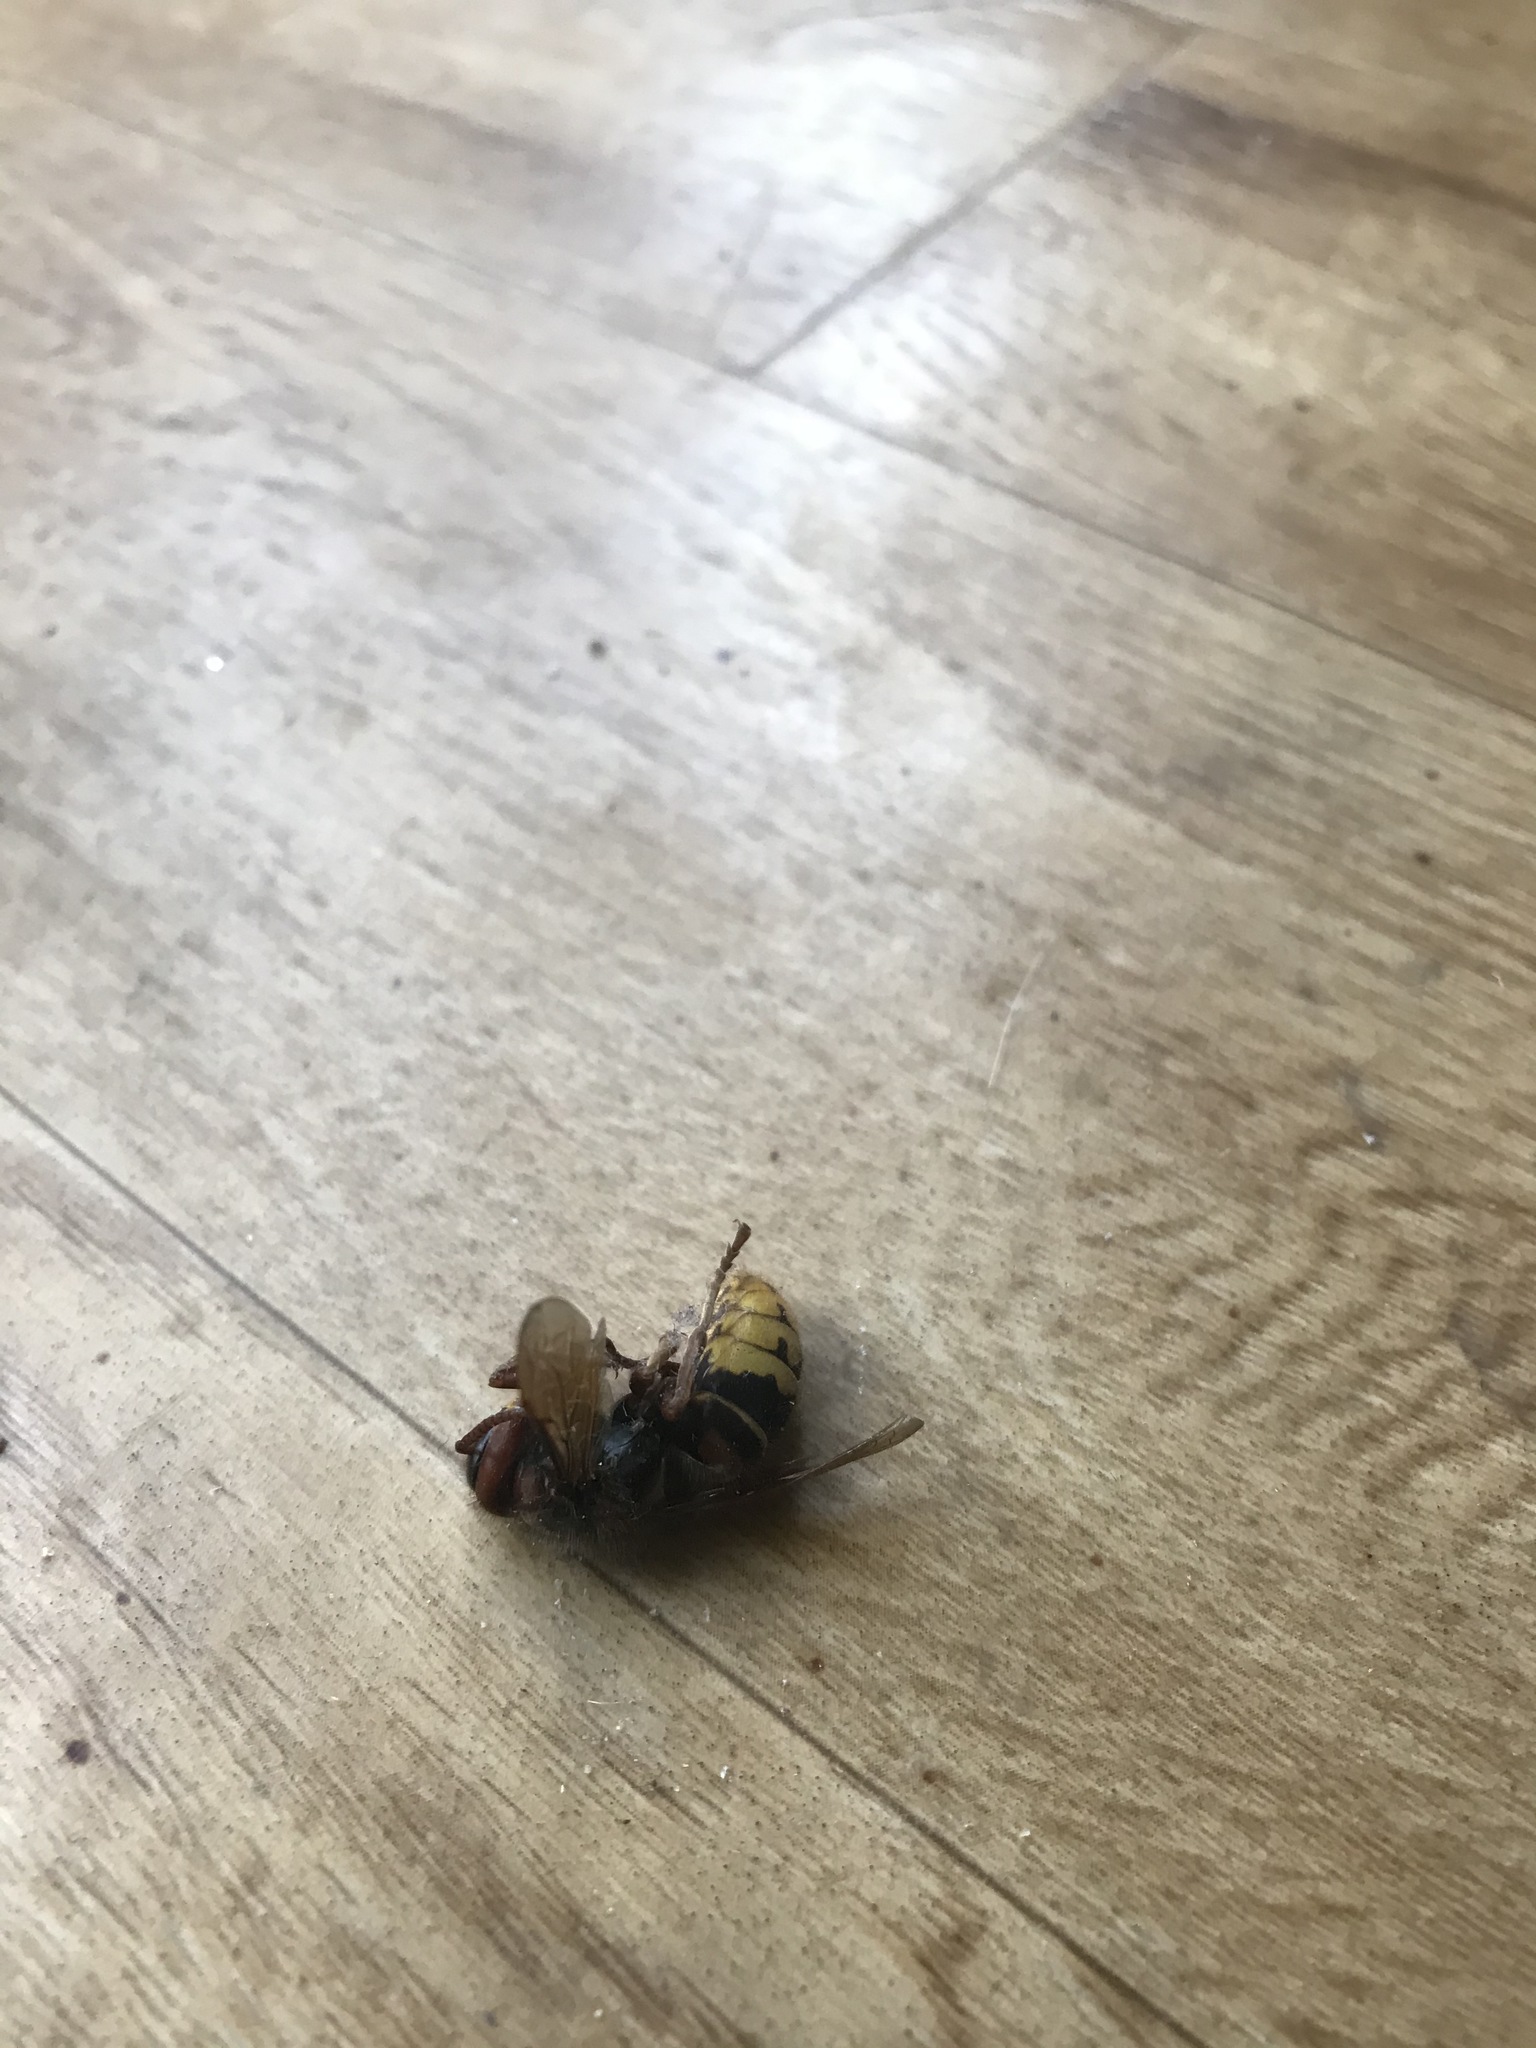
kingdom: Animalia
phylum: Arthropoda
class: Insecta
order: Hymenoptera
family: Vespidae
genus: Vespa
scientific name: Vespa crabro
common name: Hornet
